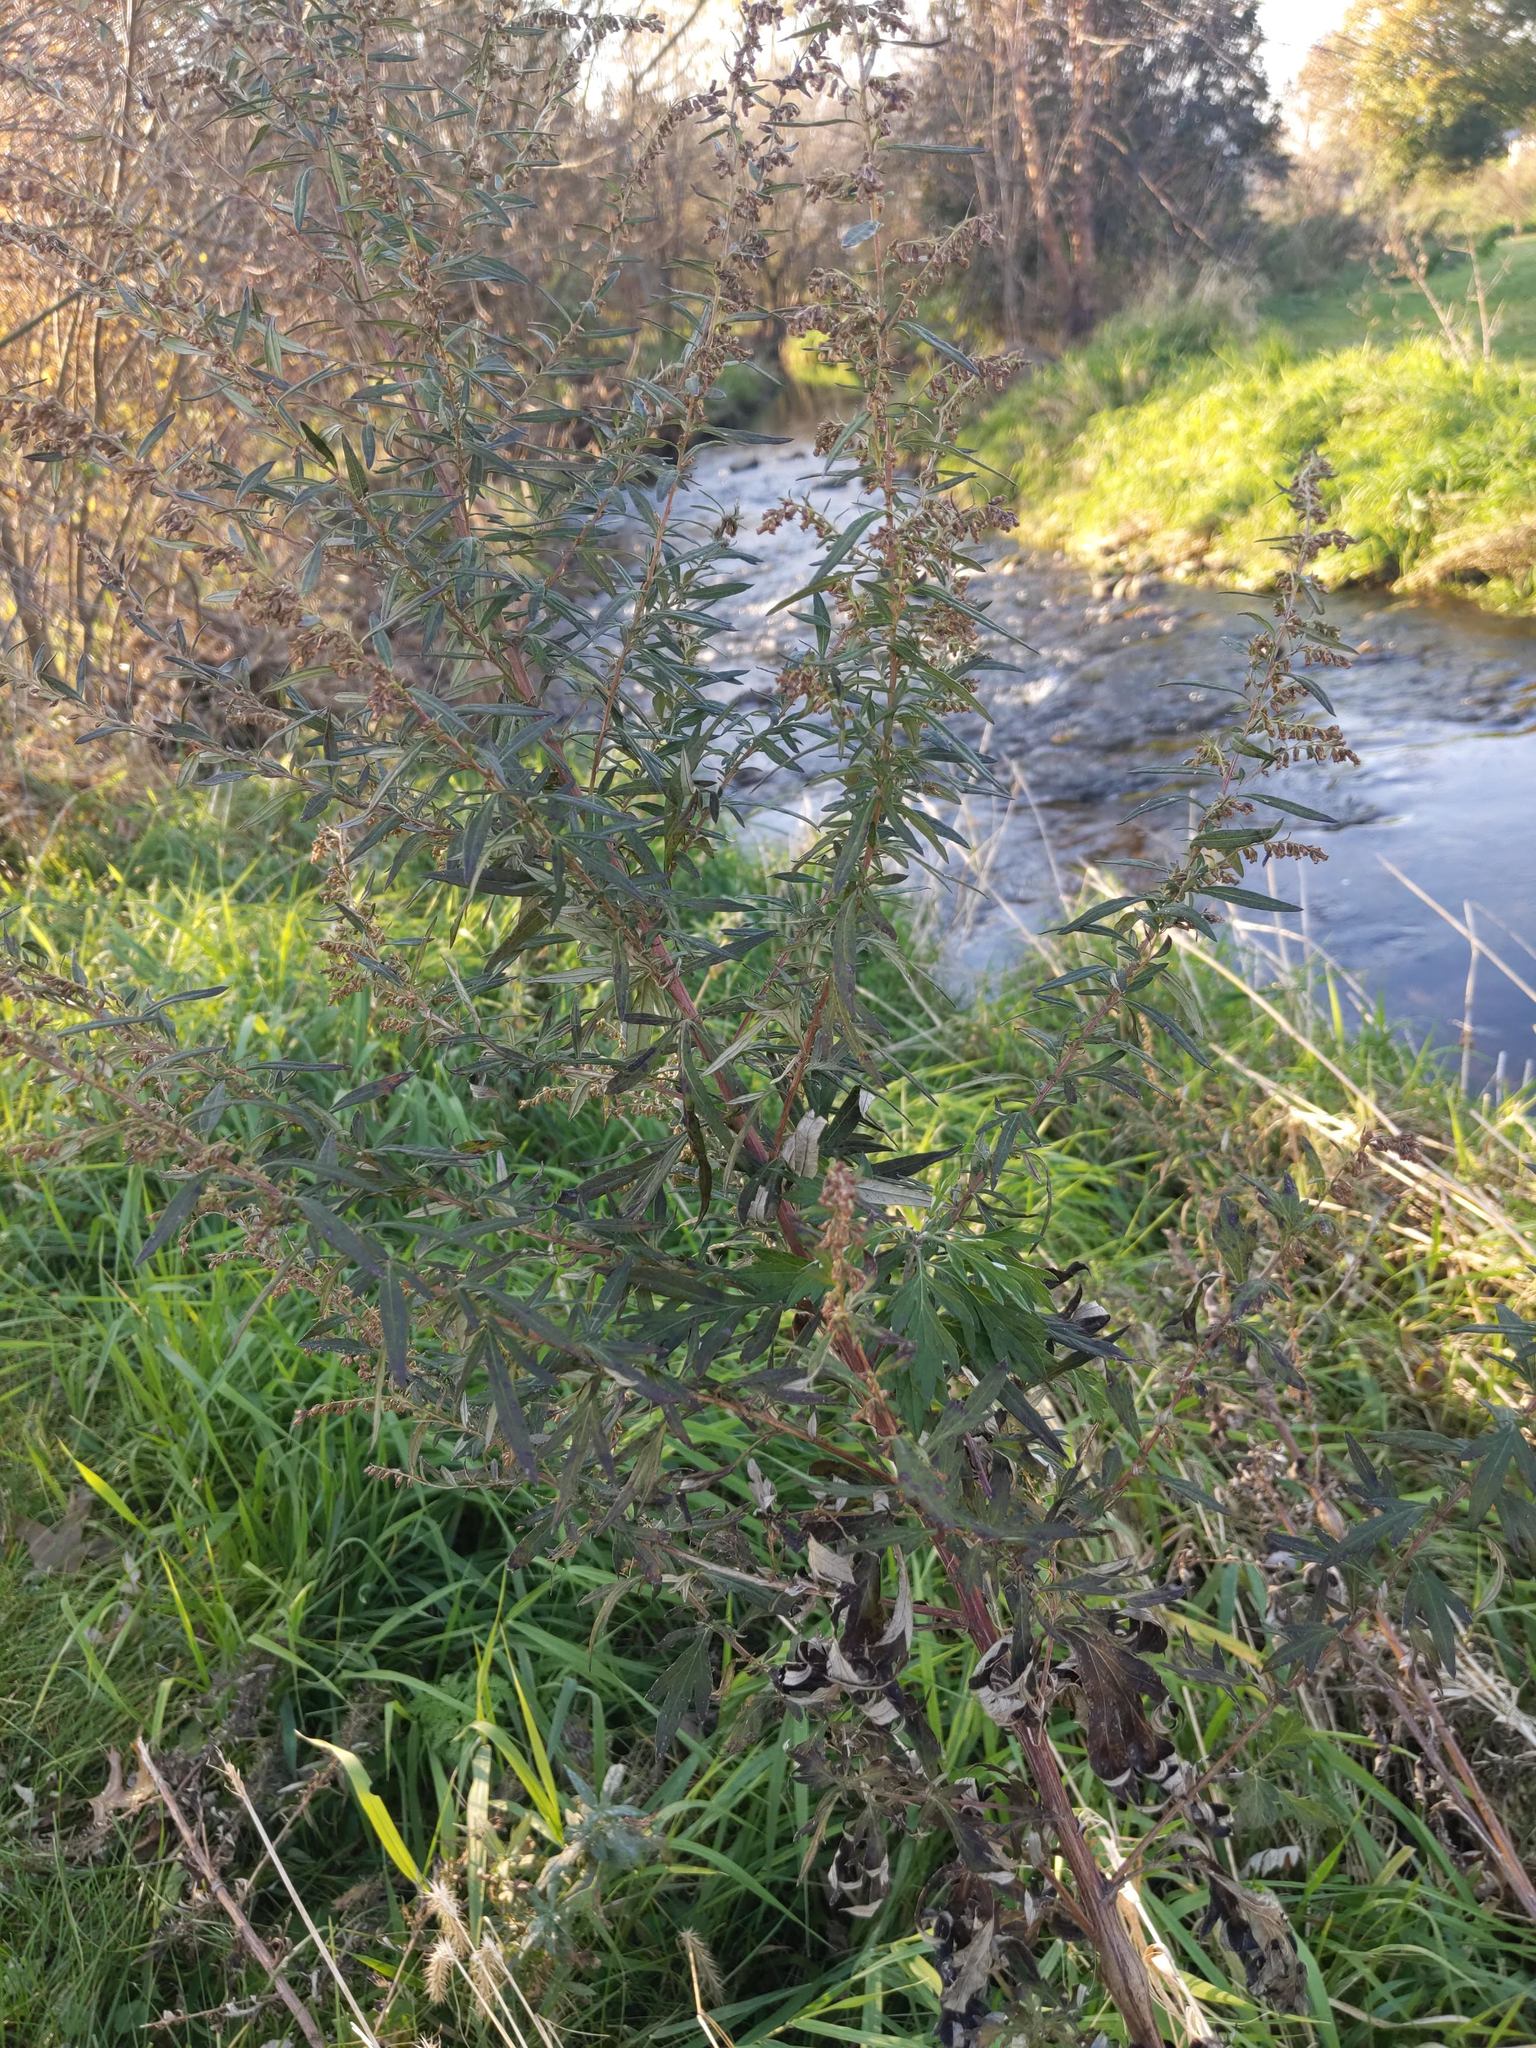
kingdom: Plantae
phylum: Tracheophyta
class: Magnoliopsida
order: Asterales
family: Asteraceae
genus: Artemisia
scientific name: Artemisia vulgaris
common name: Mugwort
